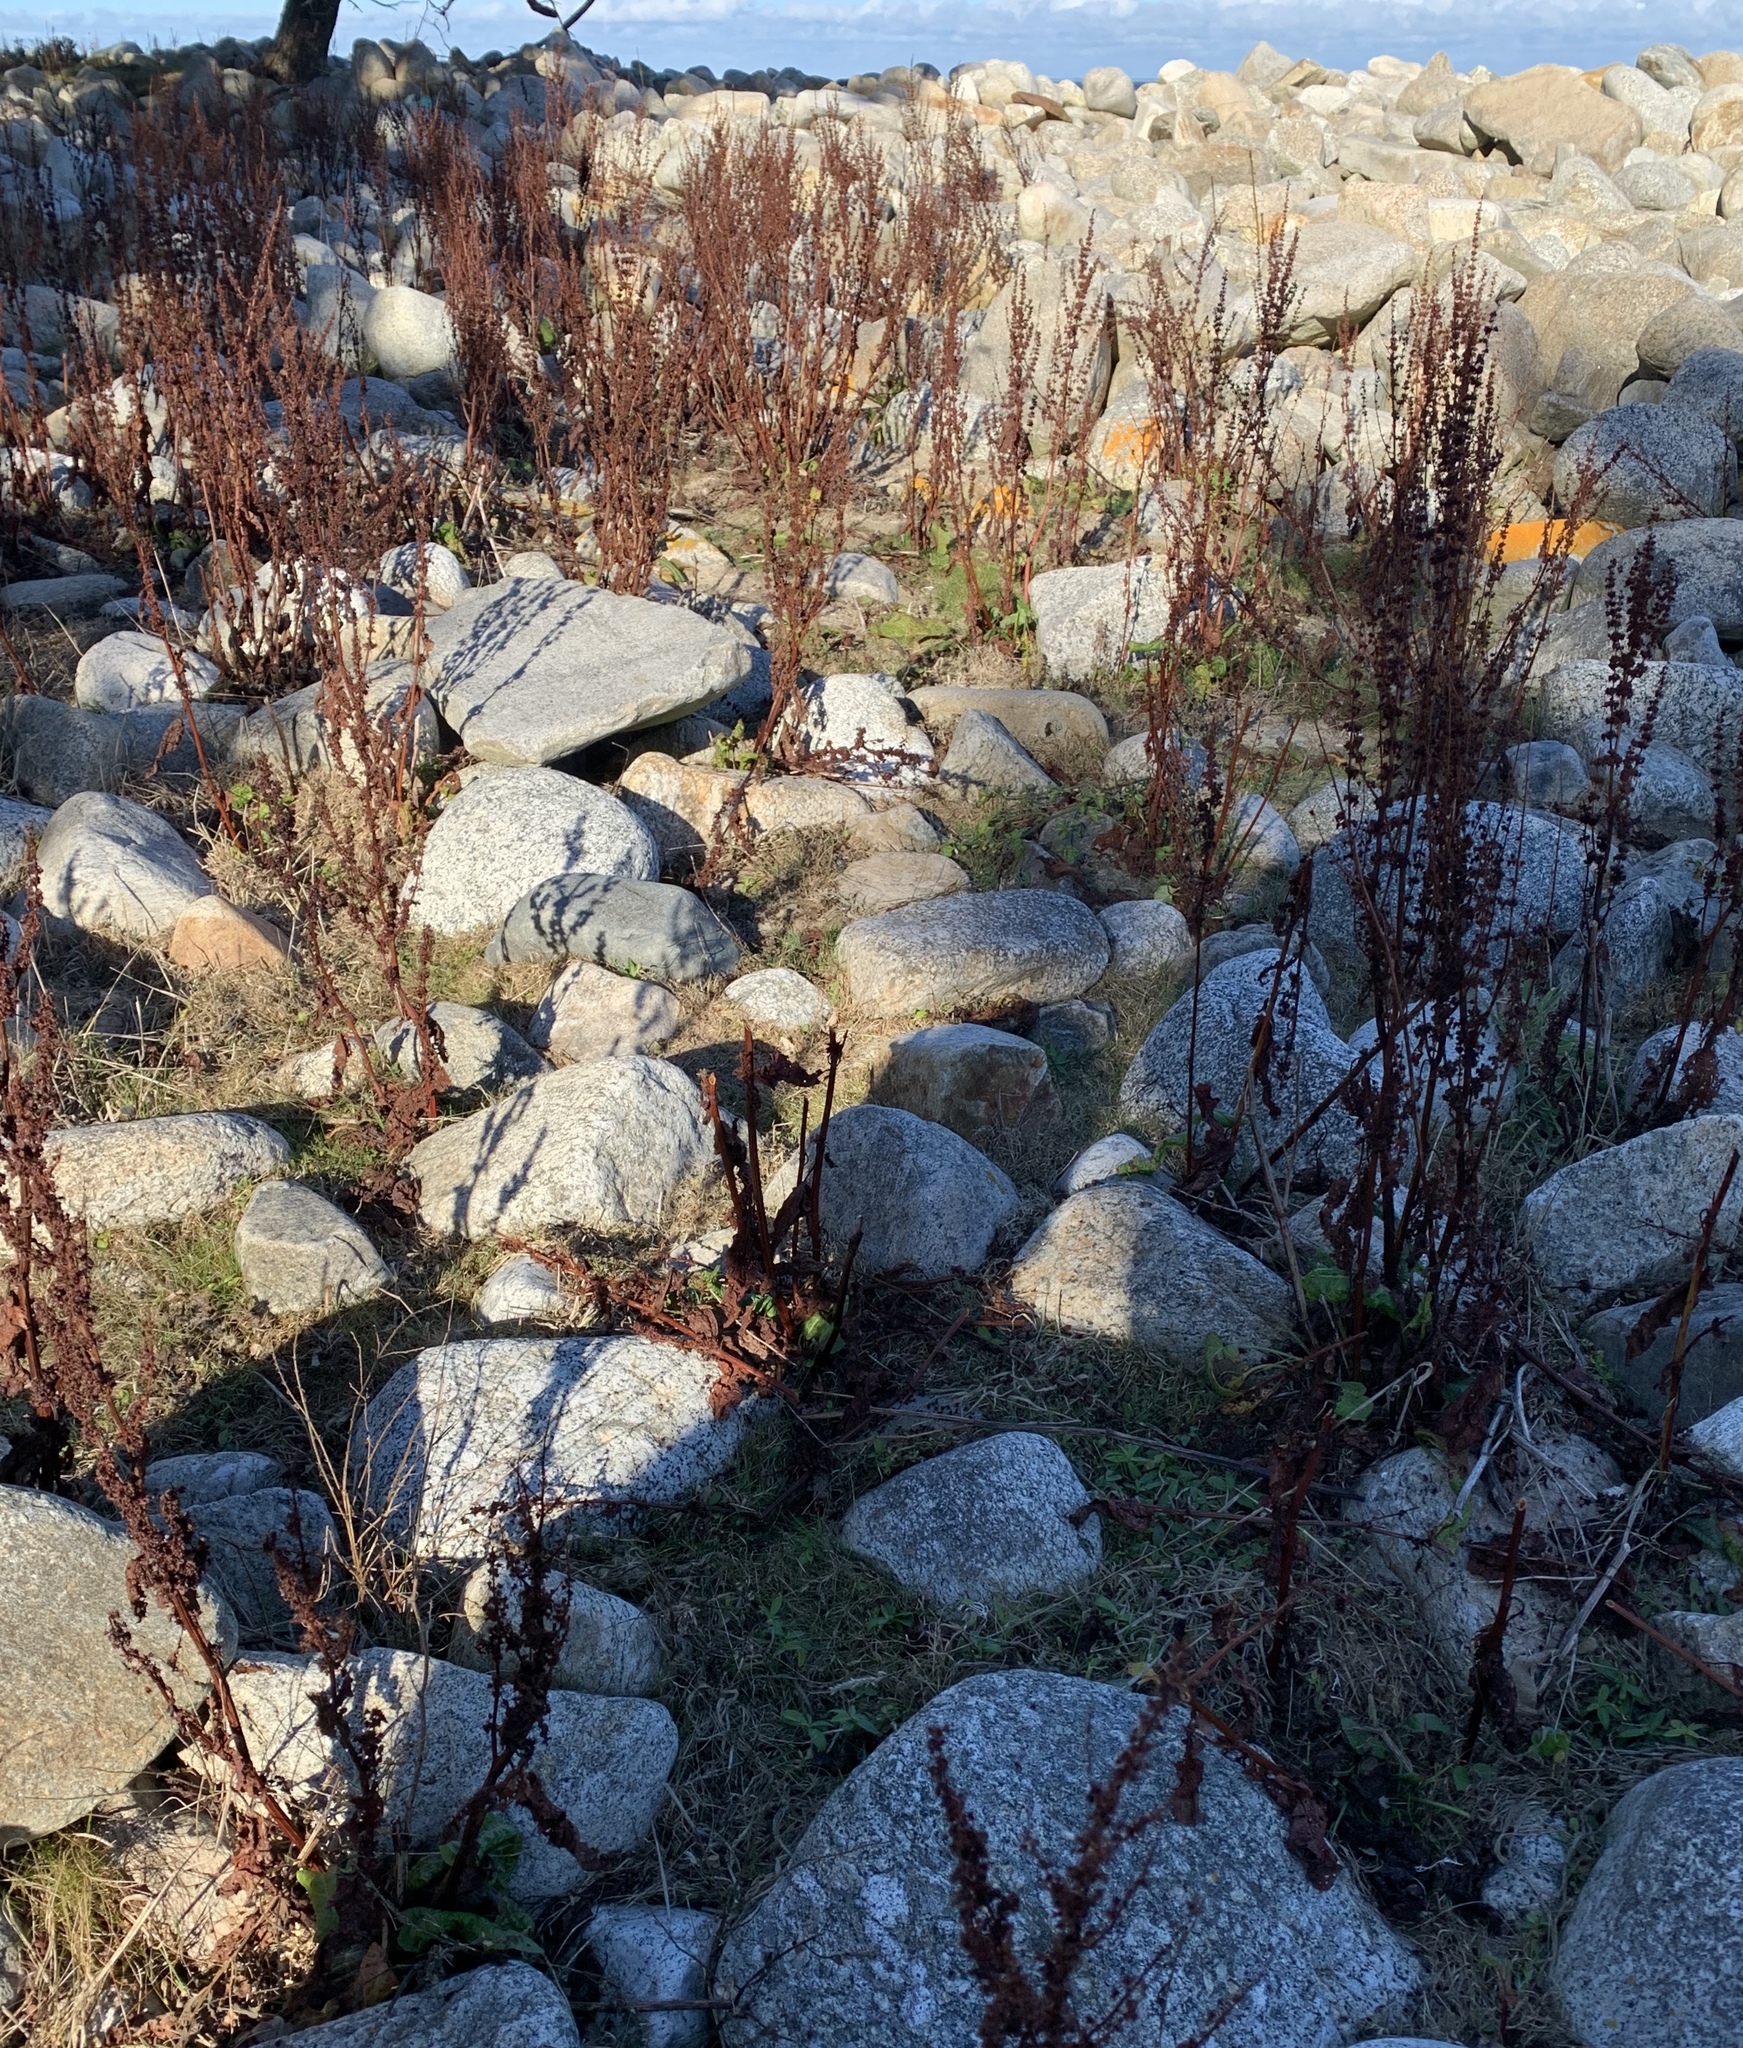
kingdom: Plantae
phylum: Tracheophyta
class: Magnoliopsida
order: Caryophyllales
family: Polygonaceae
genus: Rumex
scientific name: Rumex crispus
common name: Curled dock
